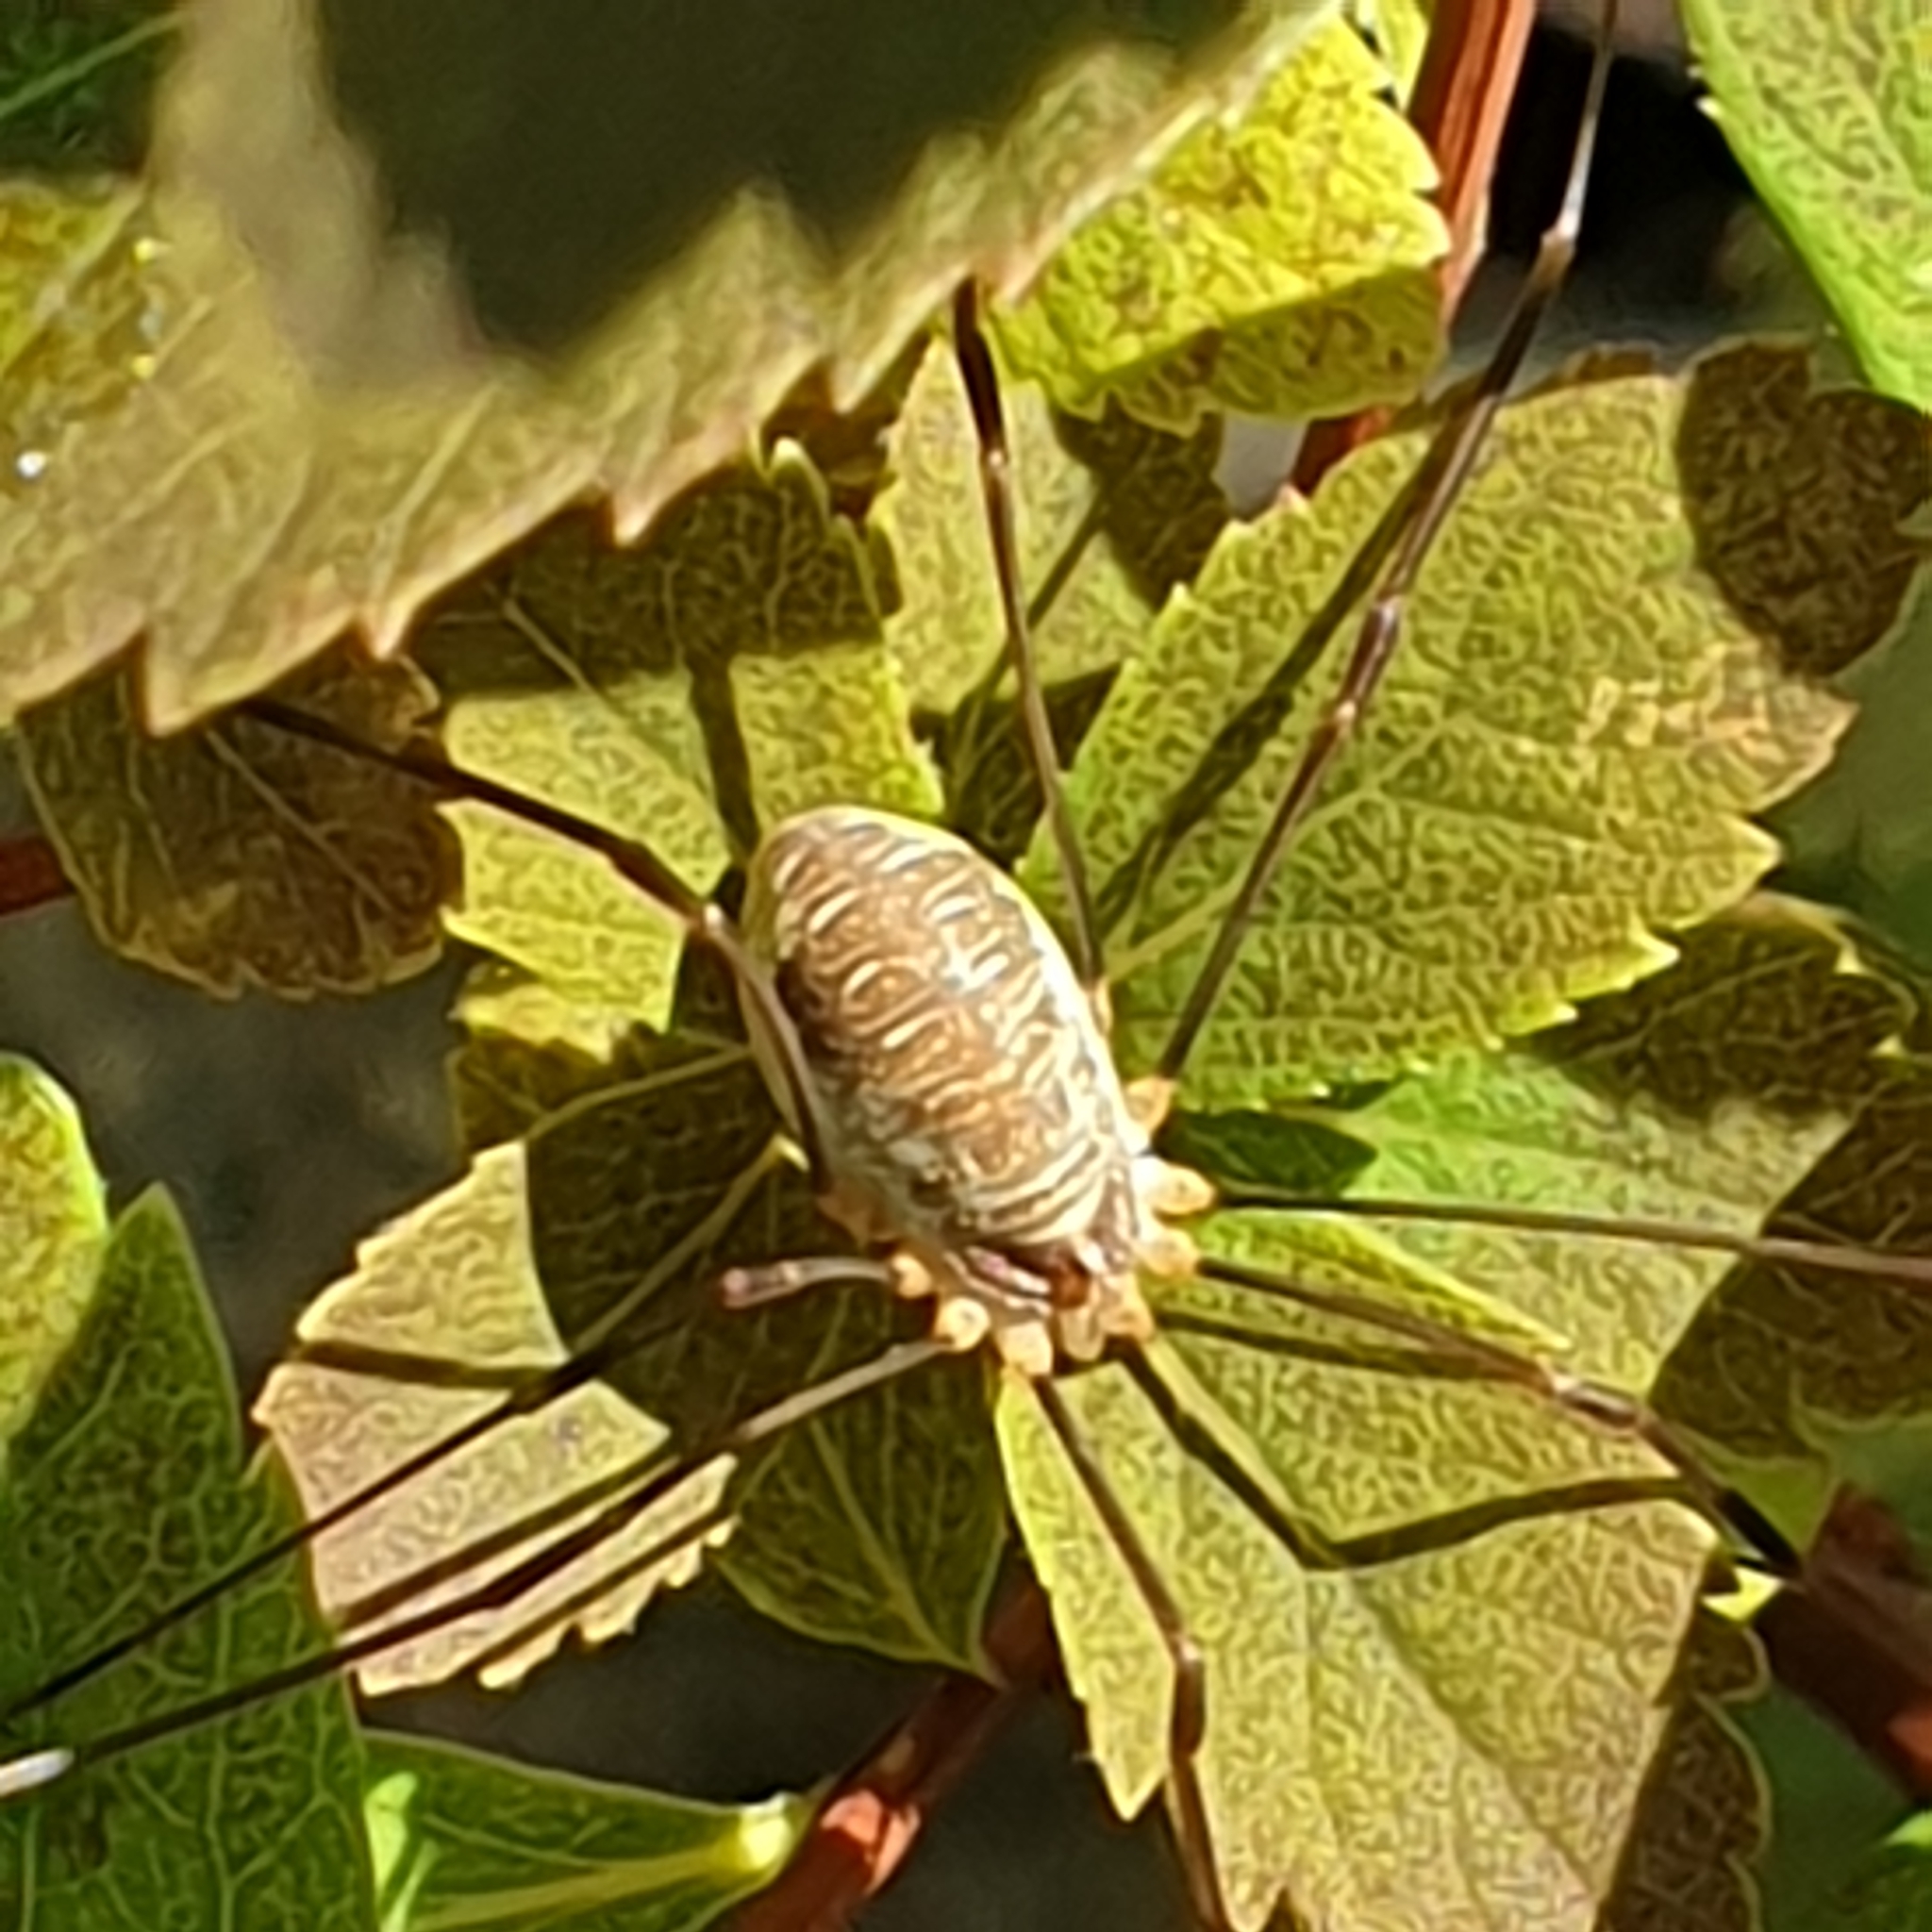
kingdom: Animalia
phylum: Arthropoda
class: Arachnida
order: Opiliones
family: Phalangiidae
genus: Opilio
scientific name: Opilio canestrinii
